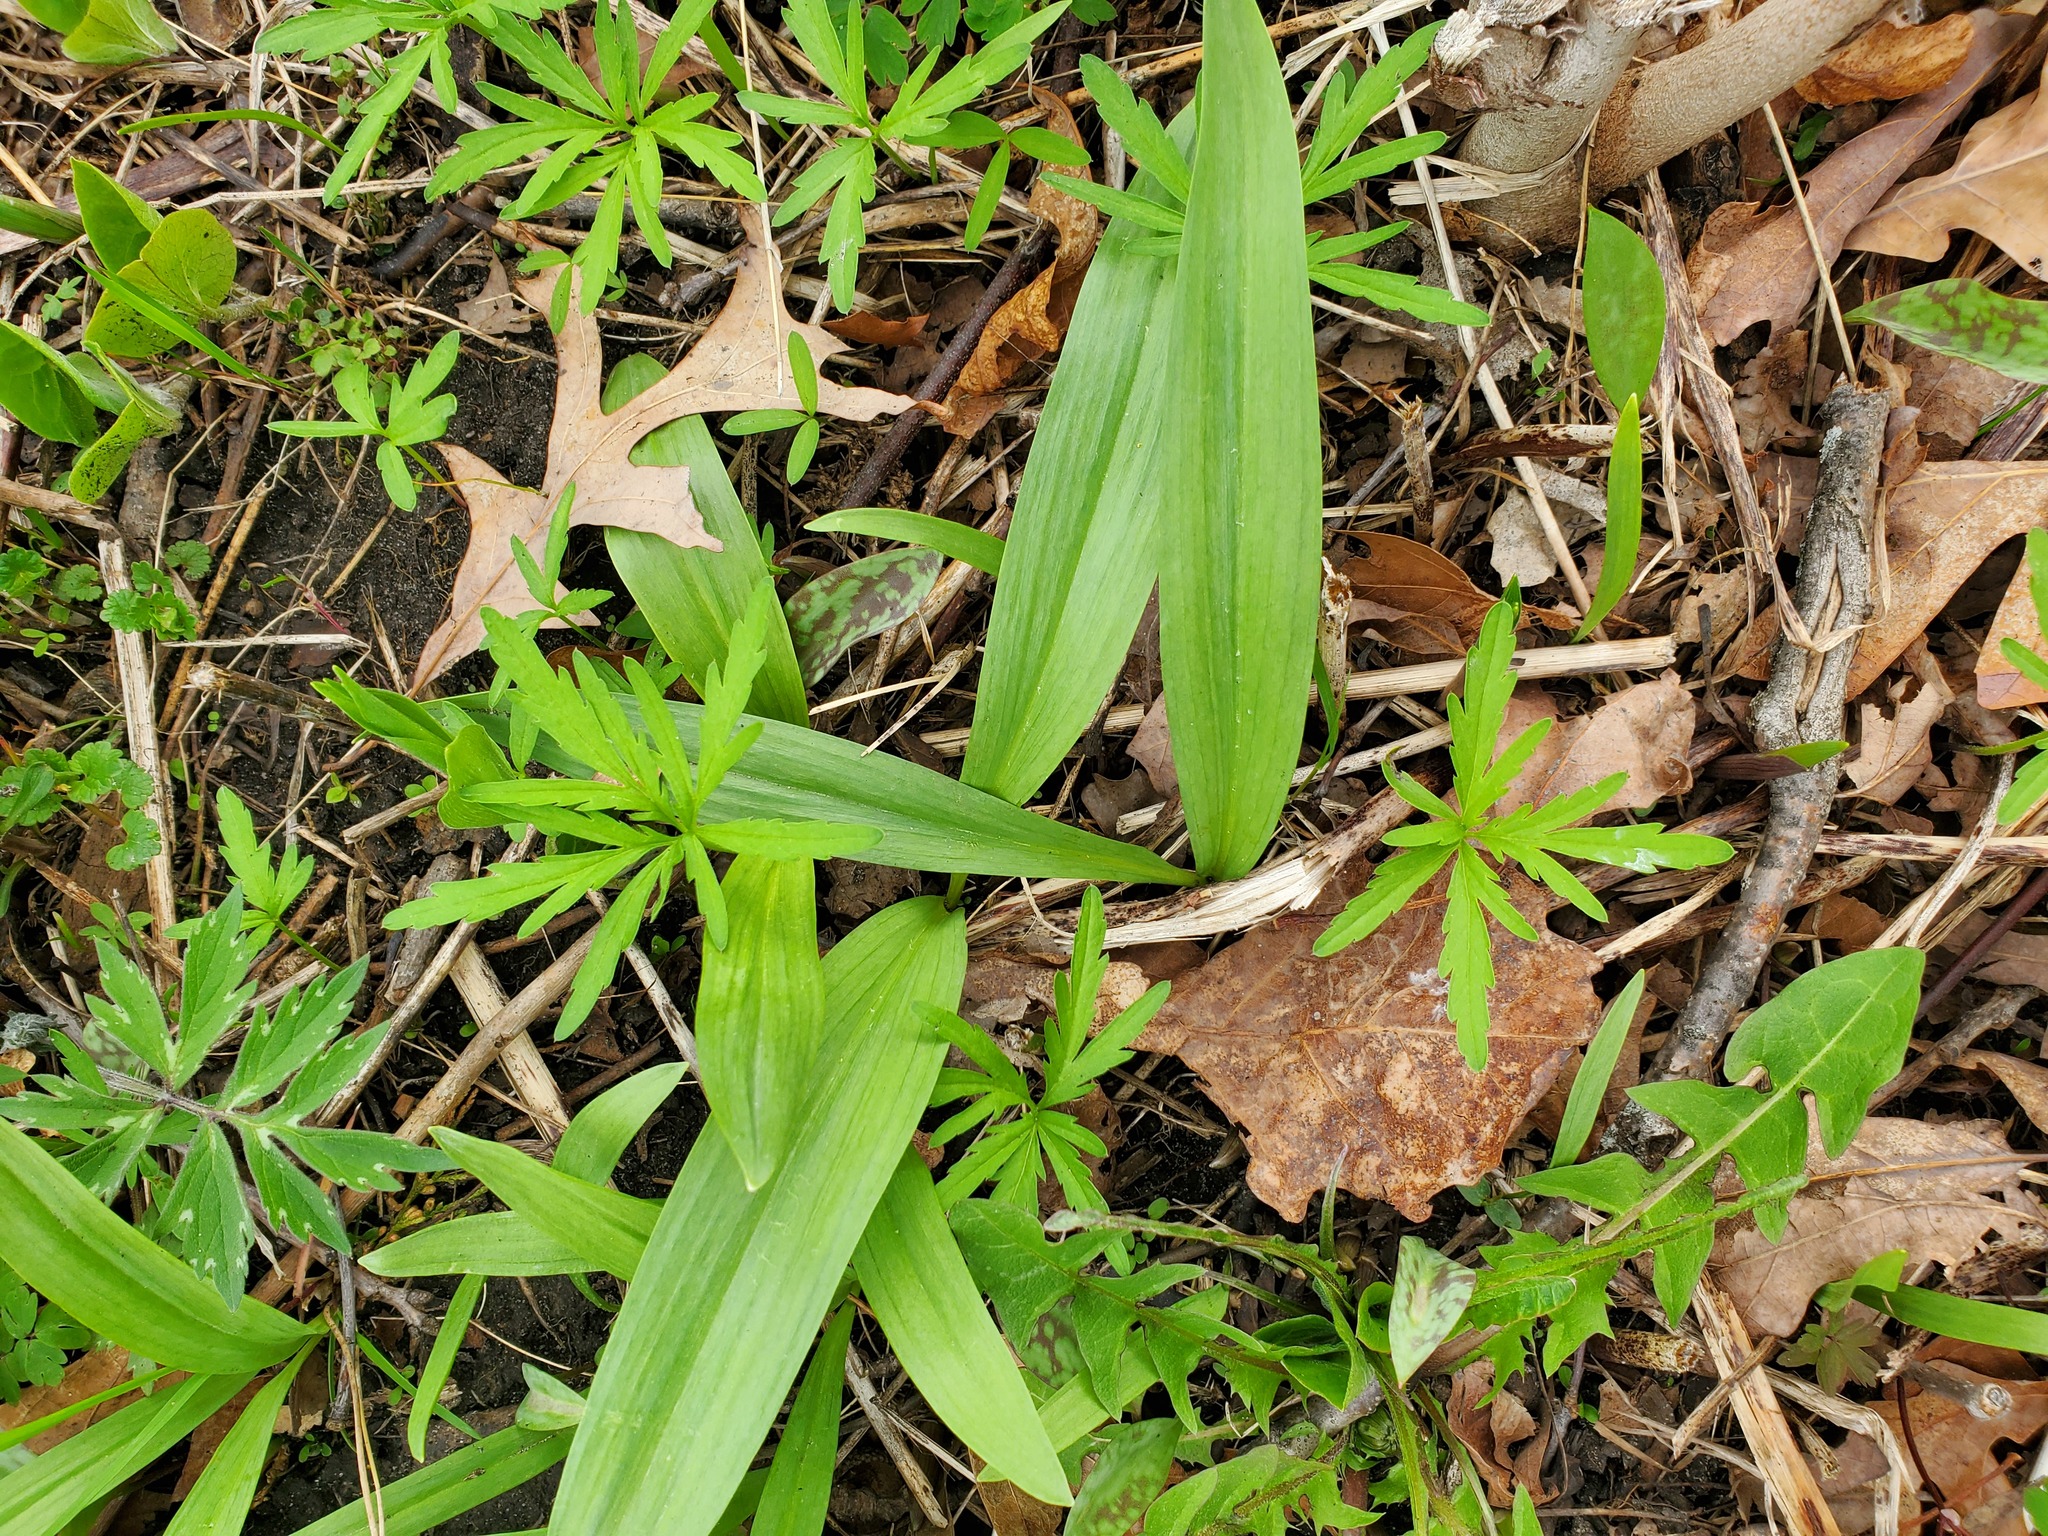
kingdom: Plantae
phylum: Tracheophyta
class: Liliopsida
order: Asparagales
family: Amaryllidaceae
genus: Allium
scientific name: Allium tricoccum
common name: Ramp
